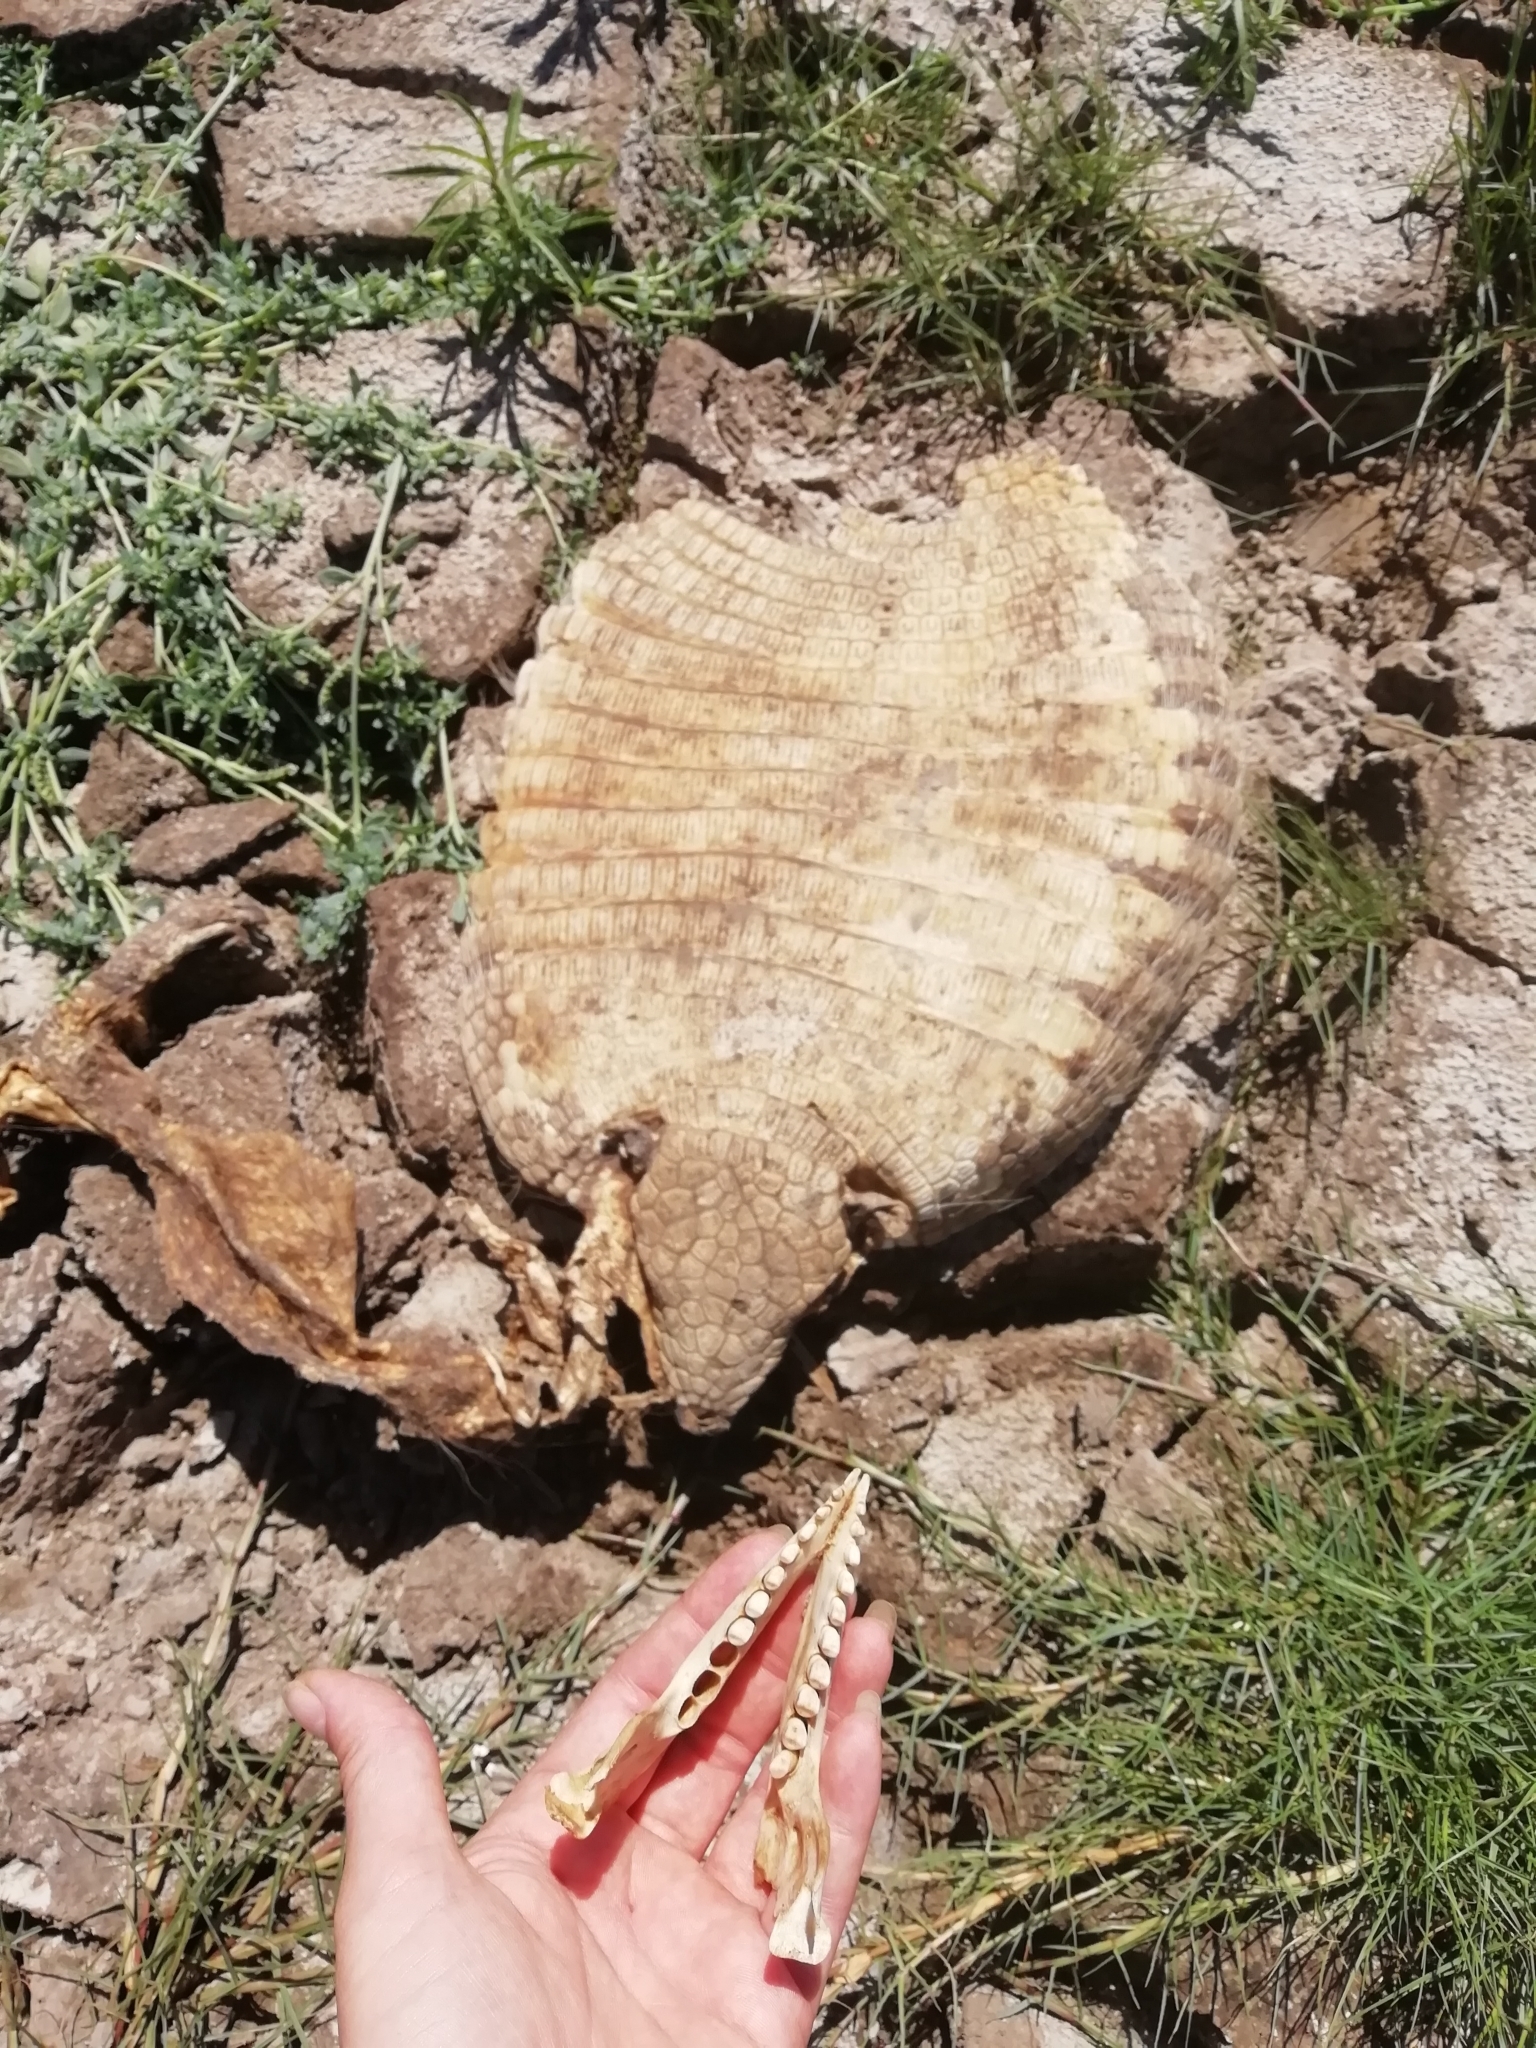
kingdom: Animalia
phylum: Chordata
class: Mammalia
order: Cingulata
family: Dasypodidae
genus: Euphractus
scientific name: Euphractus sexcinctus
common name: Six-banded armadillo
